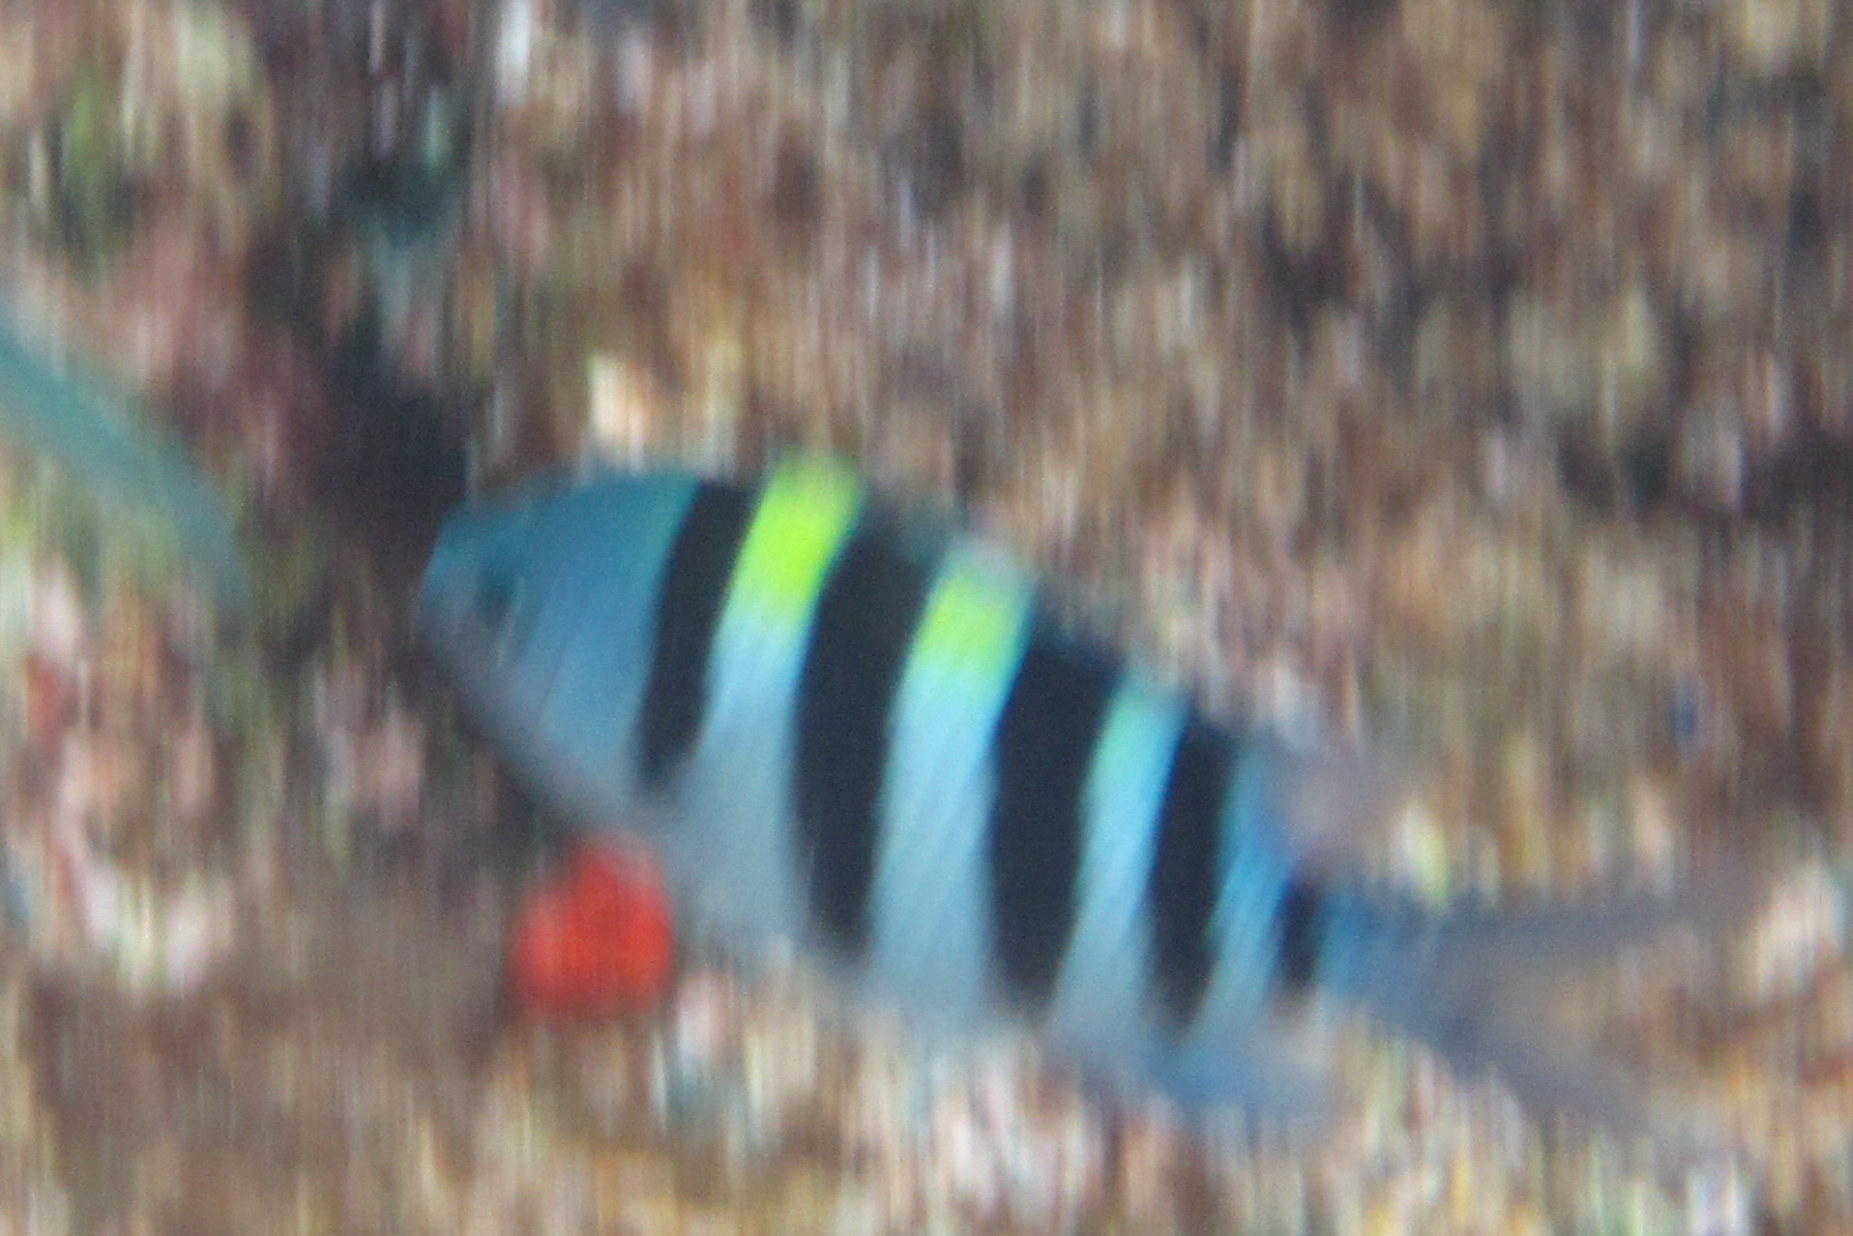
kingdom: Animalia
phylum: Chordata
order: Perciformes
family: Pomacentridae
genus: Abudefduf
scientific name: Abudefduf vaigiensis
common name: Indo-pacific sergeant
